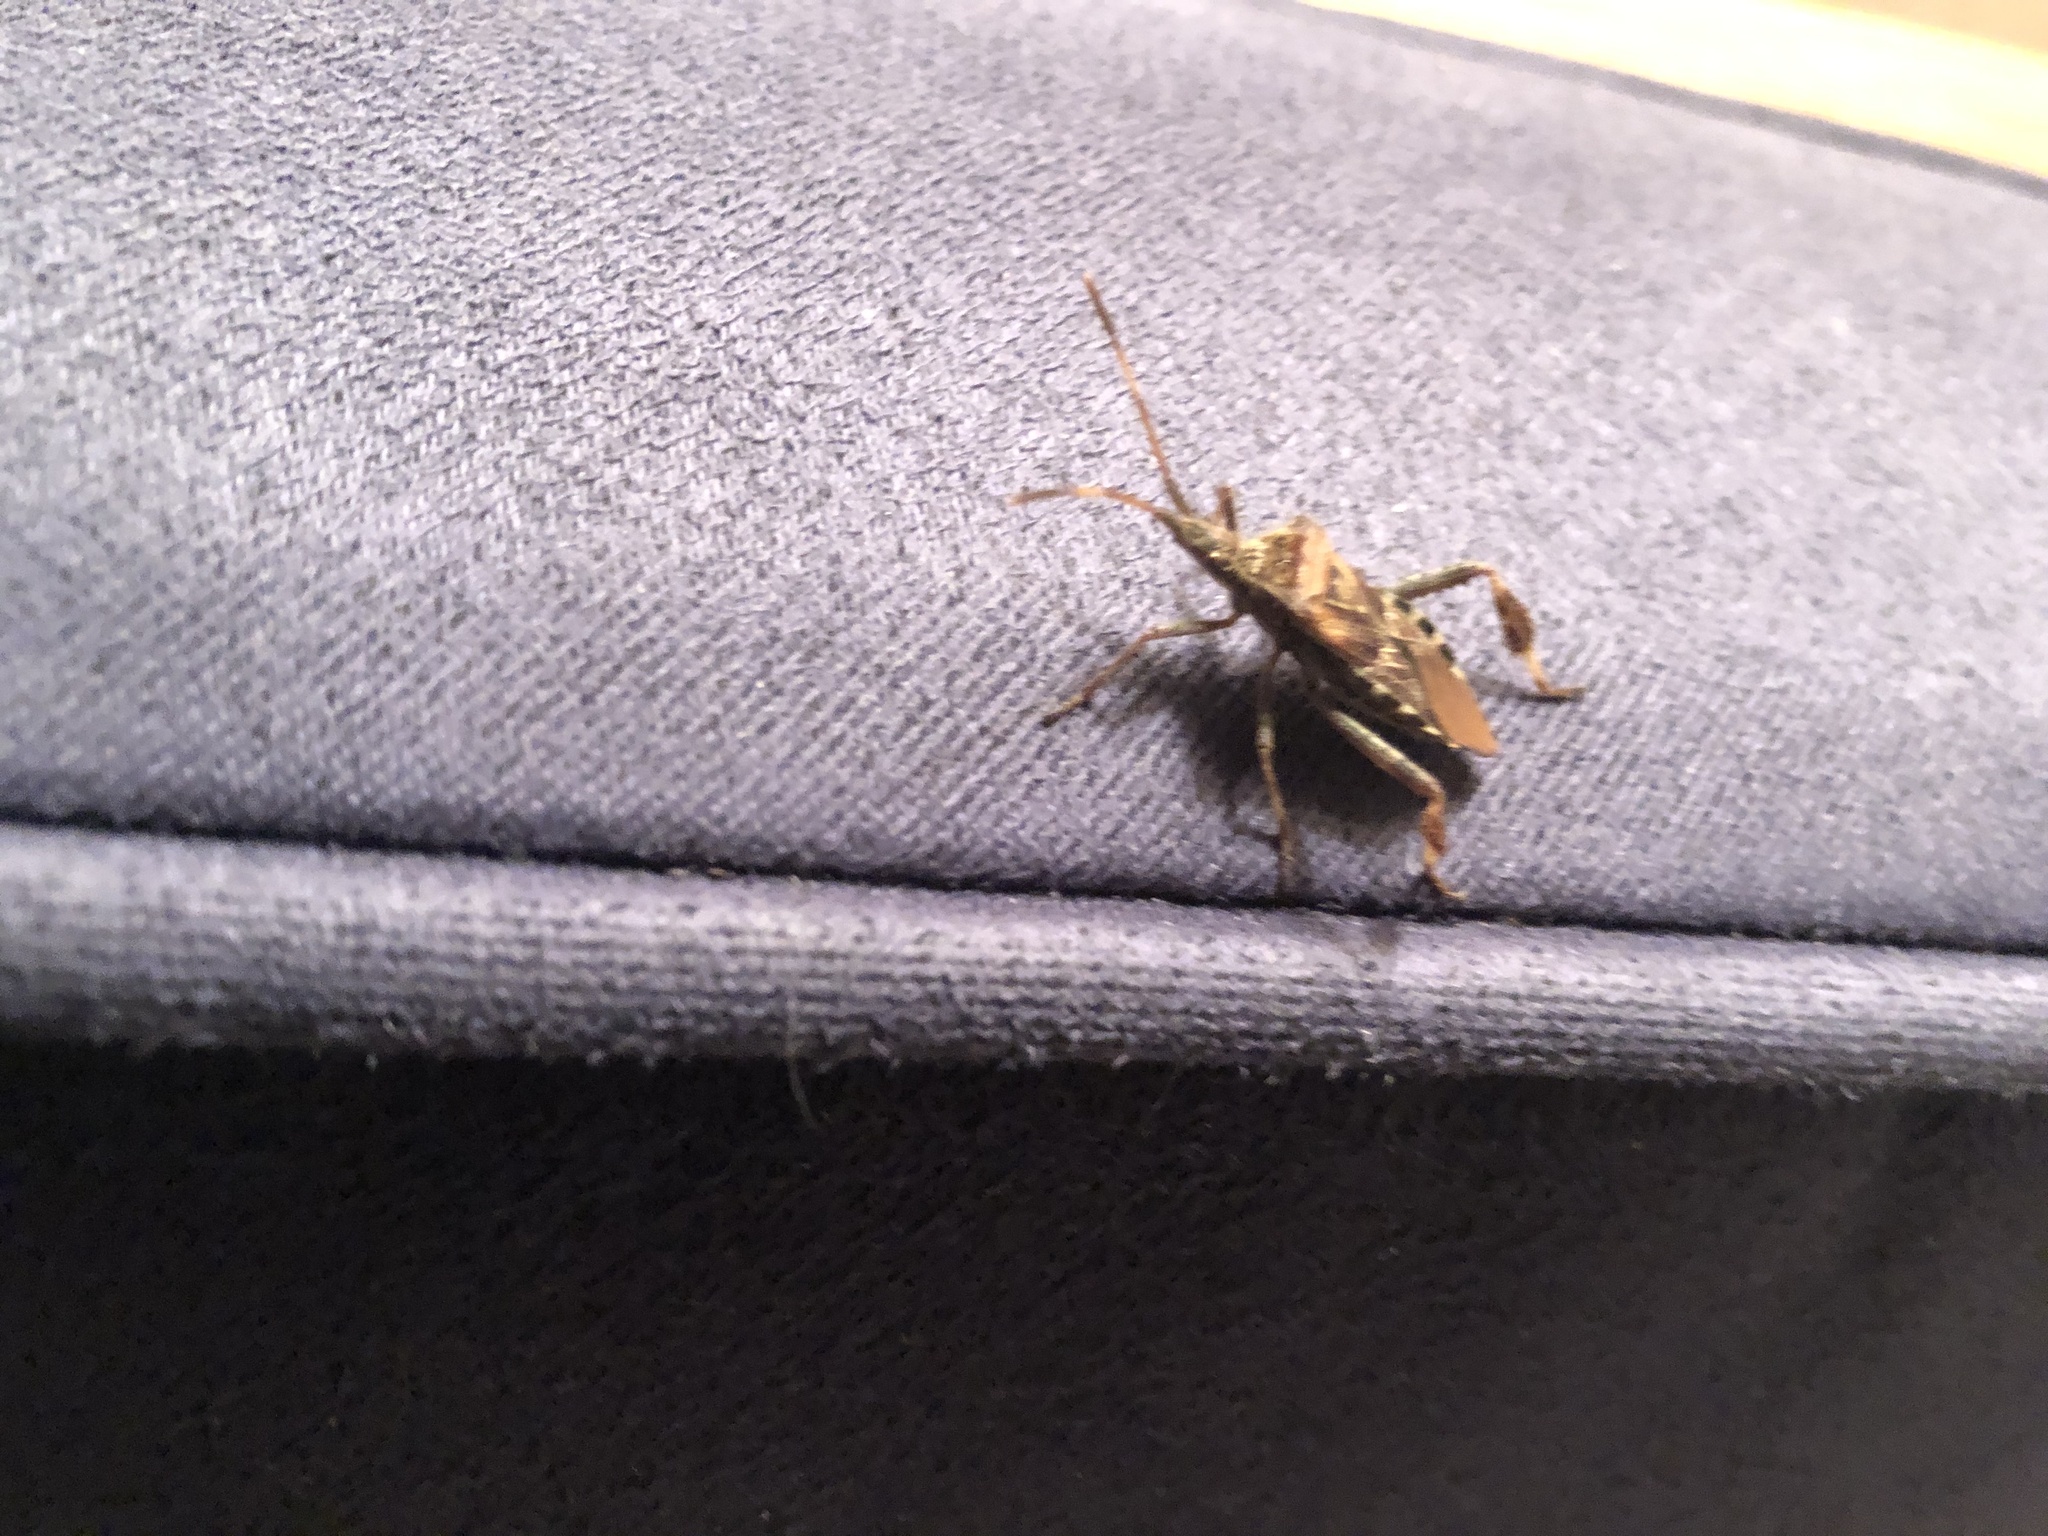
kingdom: Animalia
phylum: Arthropoda
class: Insecta
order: Hemiptera
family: Coreidae
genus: Leptoglossus
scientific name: Leptoglossus occidentalis
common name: Western conifer-seed bug
